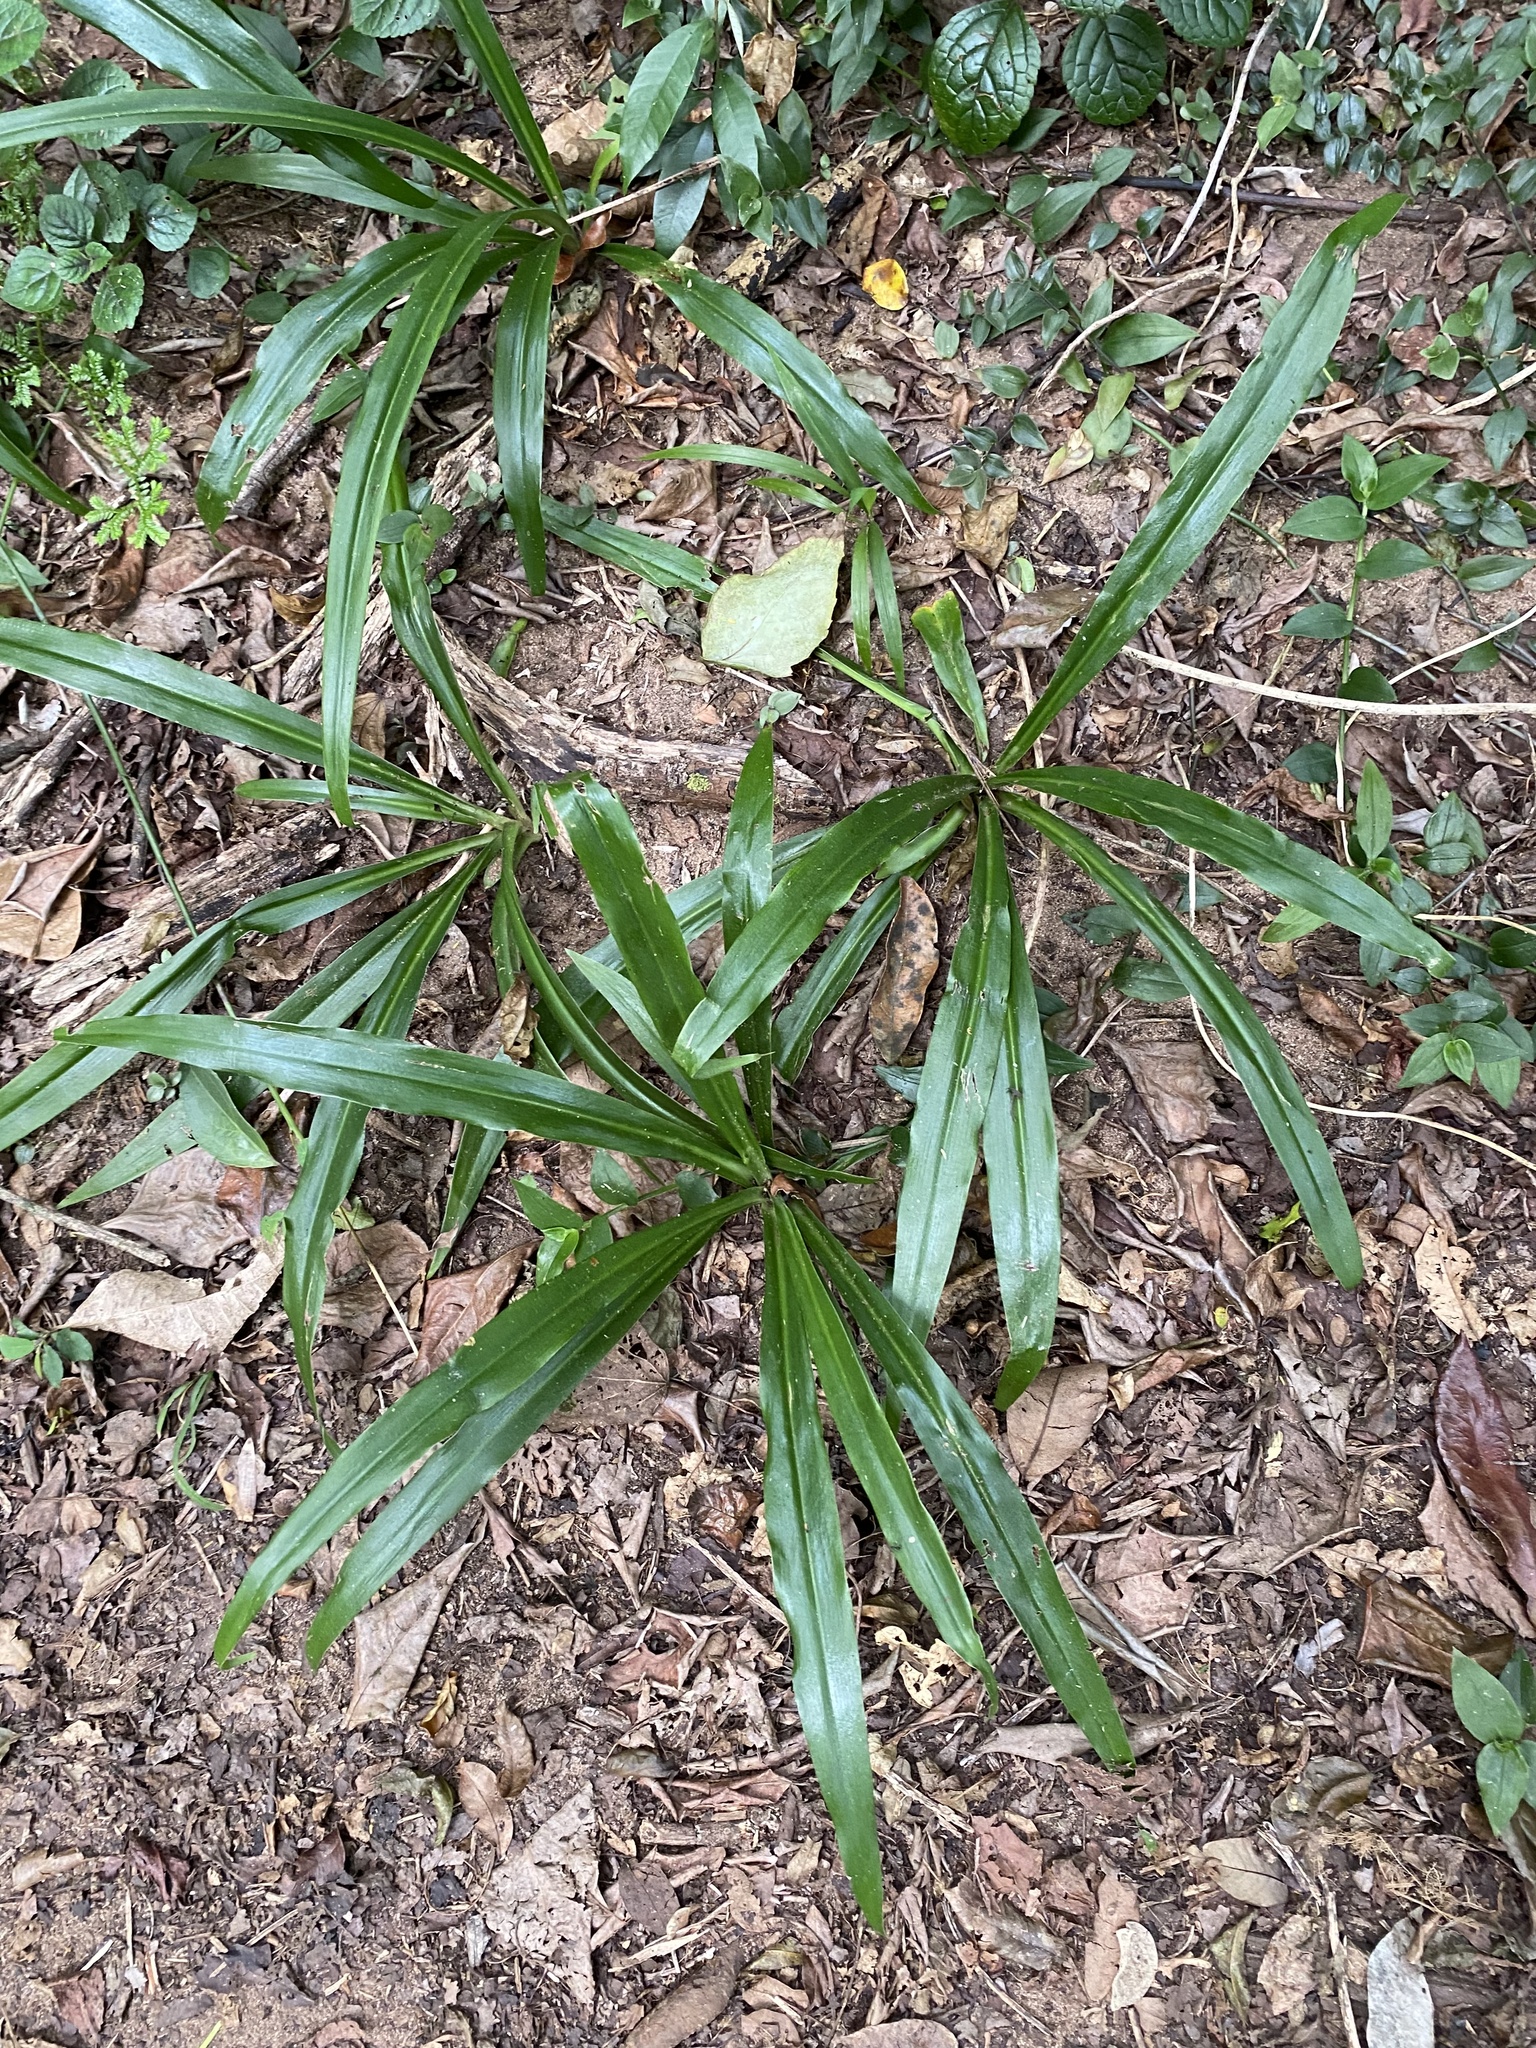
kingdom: Plantae
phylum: Tracheophyta
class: Liliopsida
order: Asparagales
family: Asparagaceae
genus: Chlorophytum
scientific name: Chlorophytum comosum
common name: Spider plant
